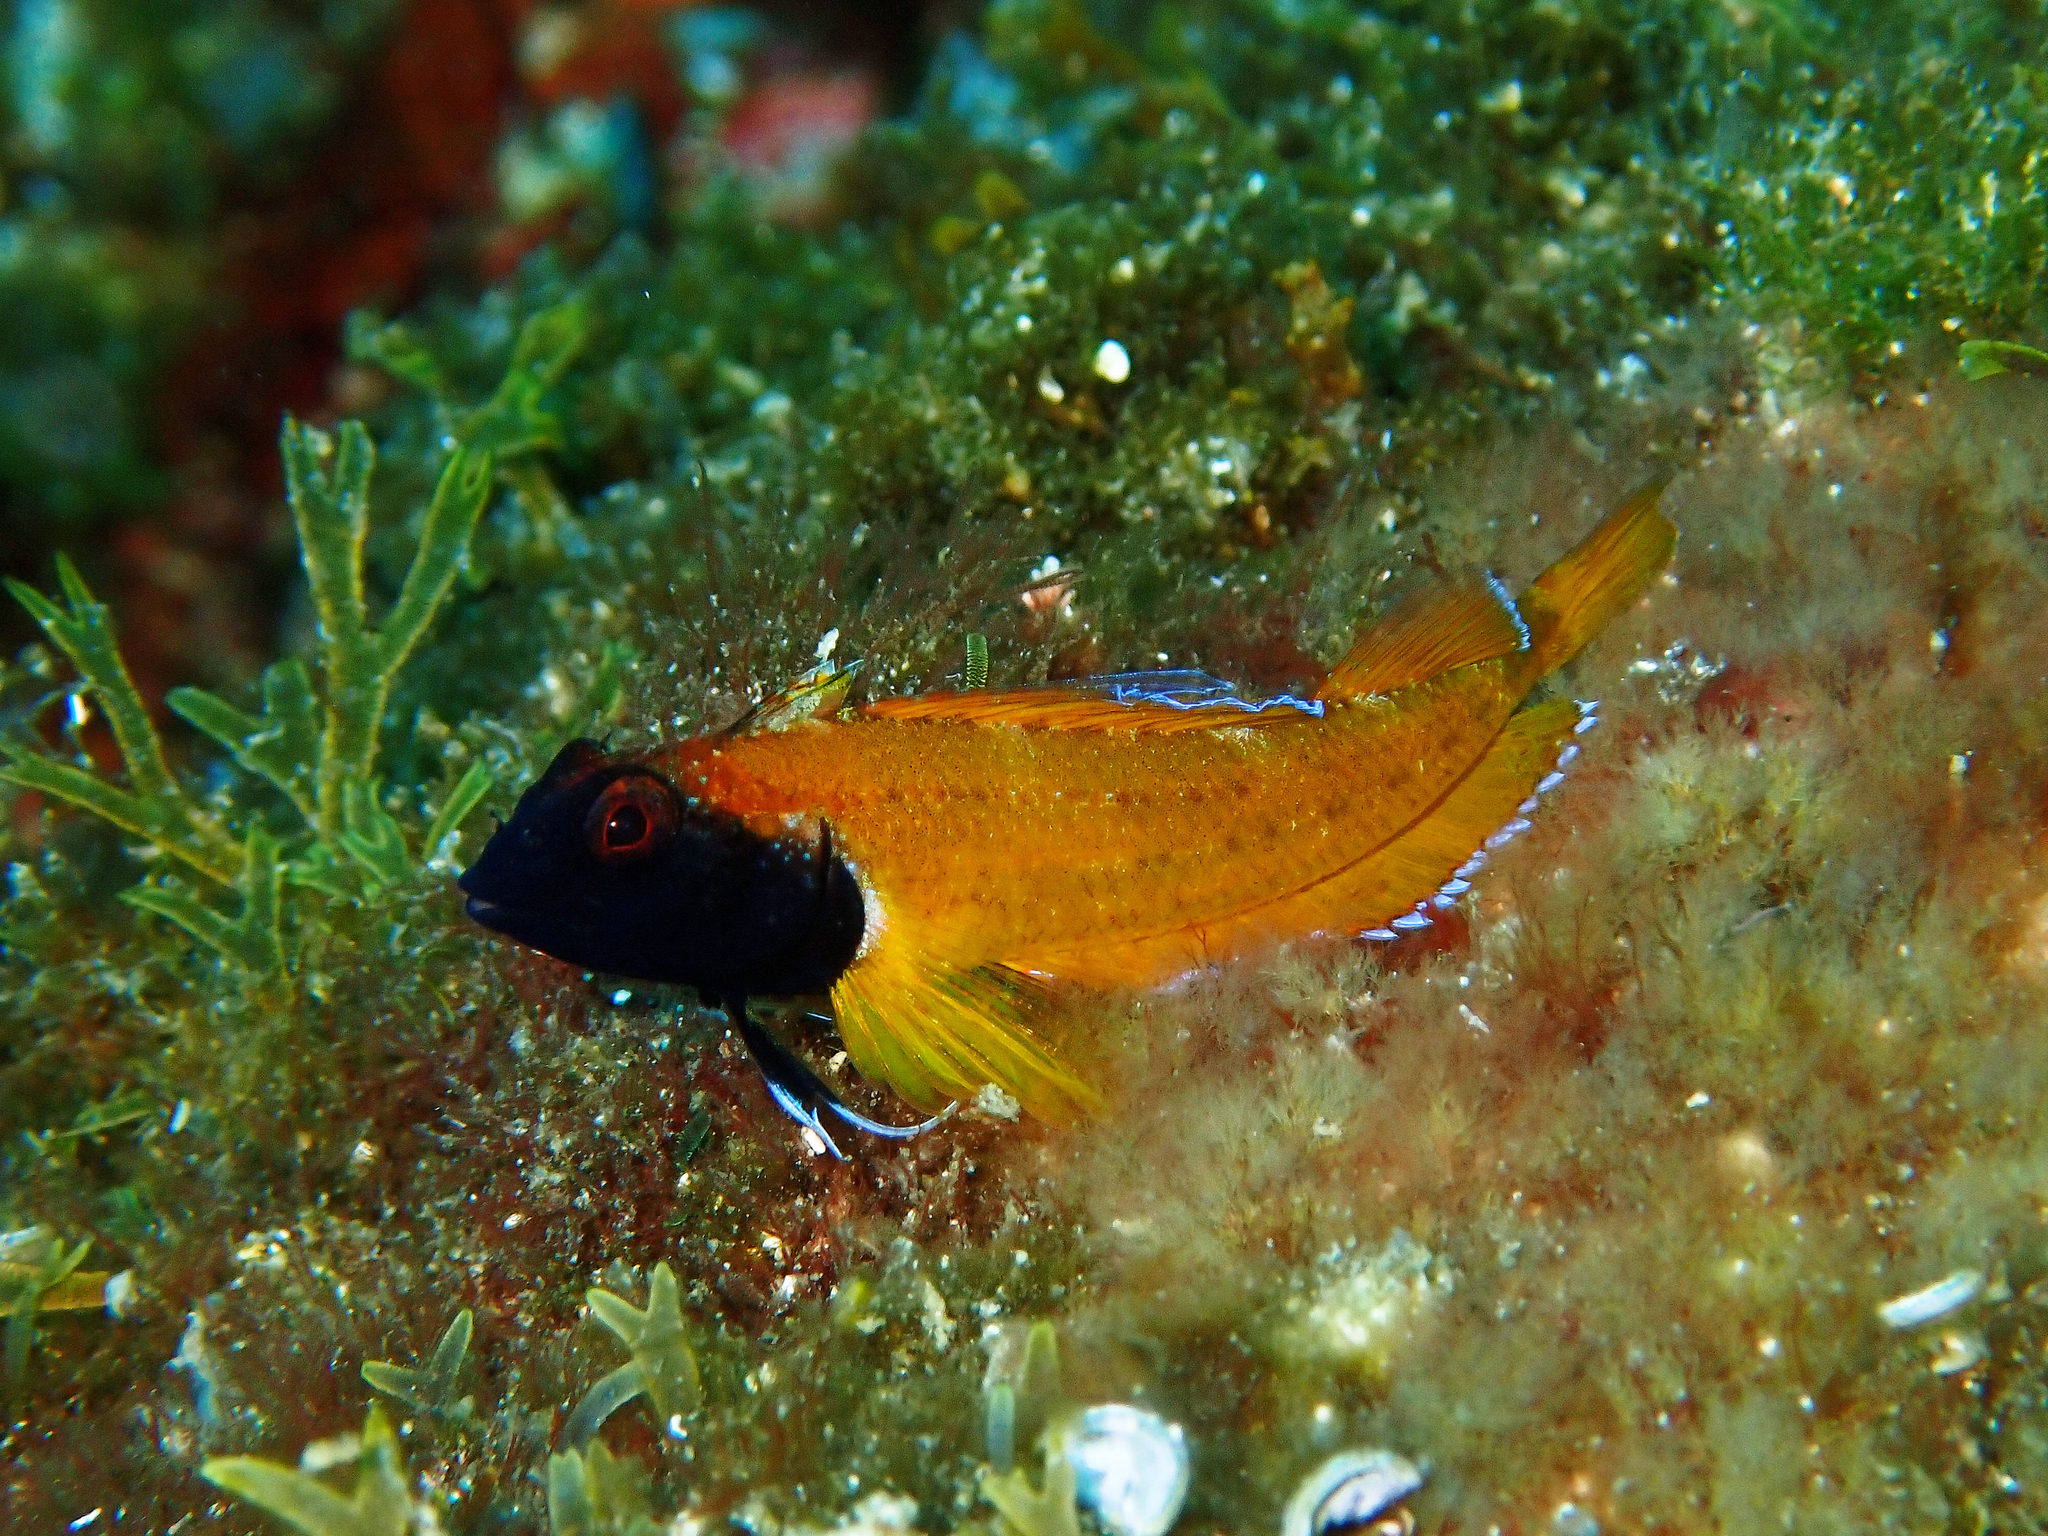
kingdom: Animalia
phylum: Chordata
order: Perciformes
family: Tripterygiidae
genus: Tripterygion
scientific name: Tripterygion delaisi
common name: Black-face blenny
